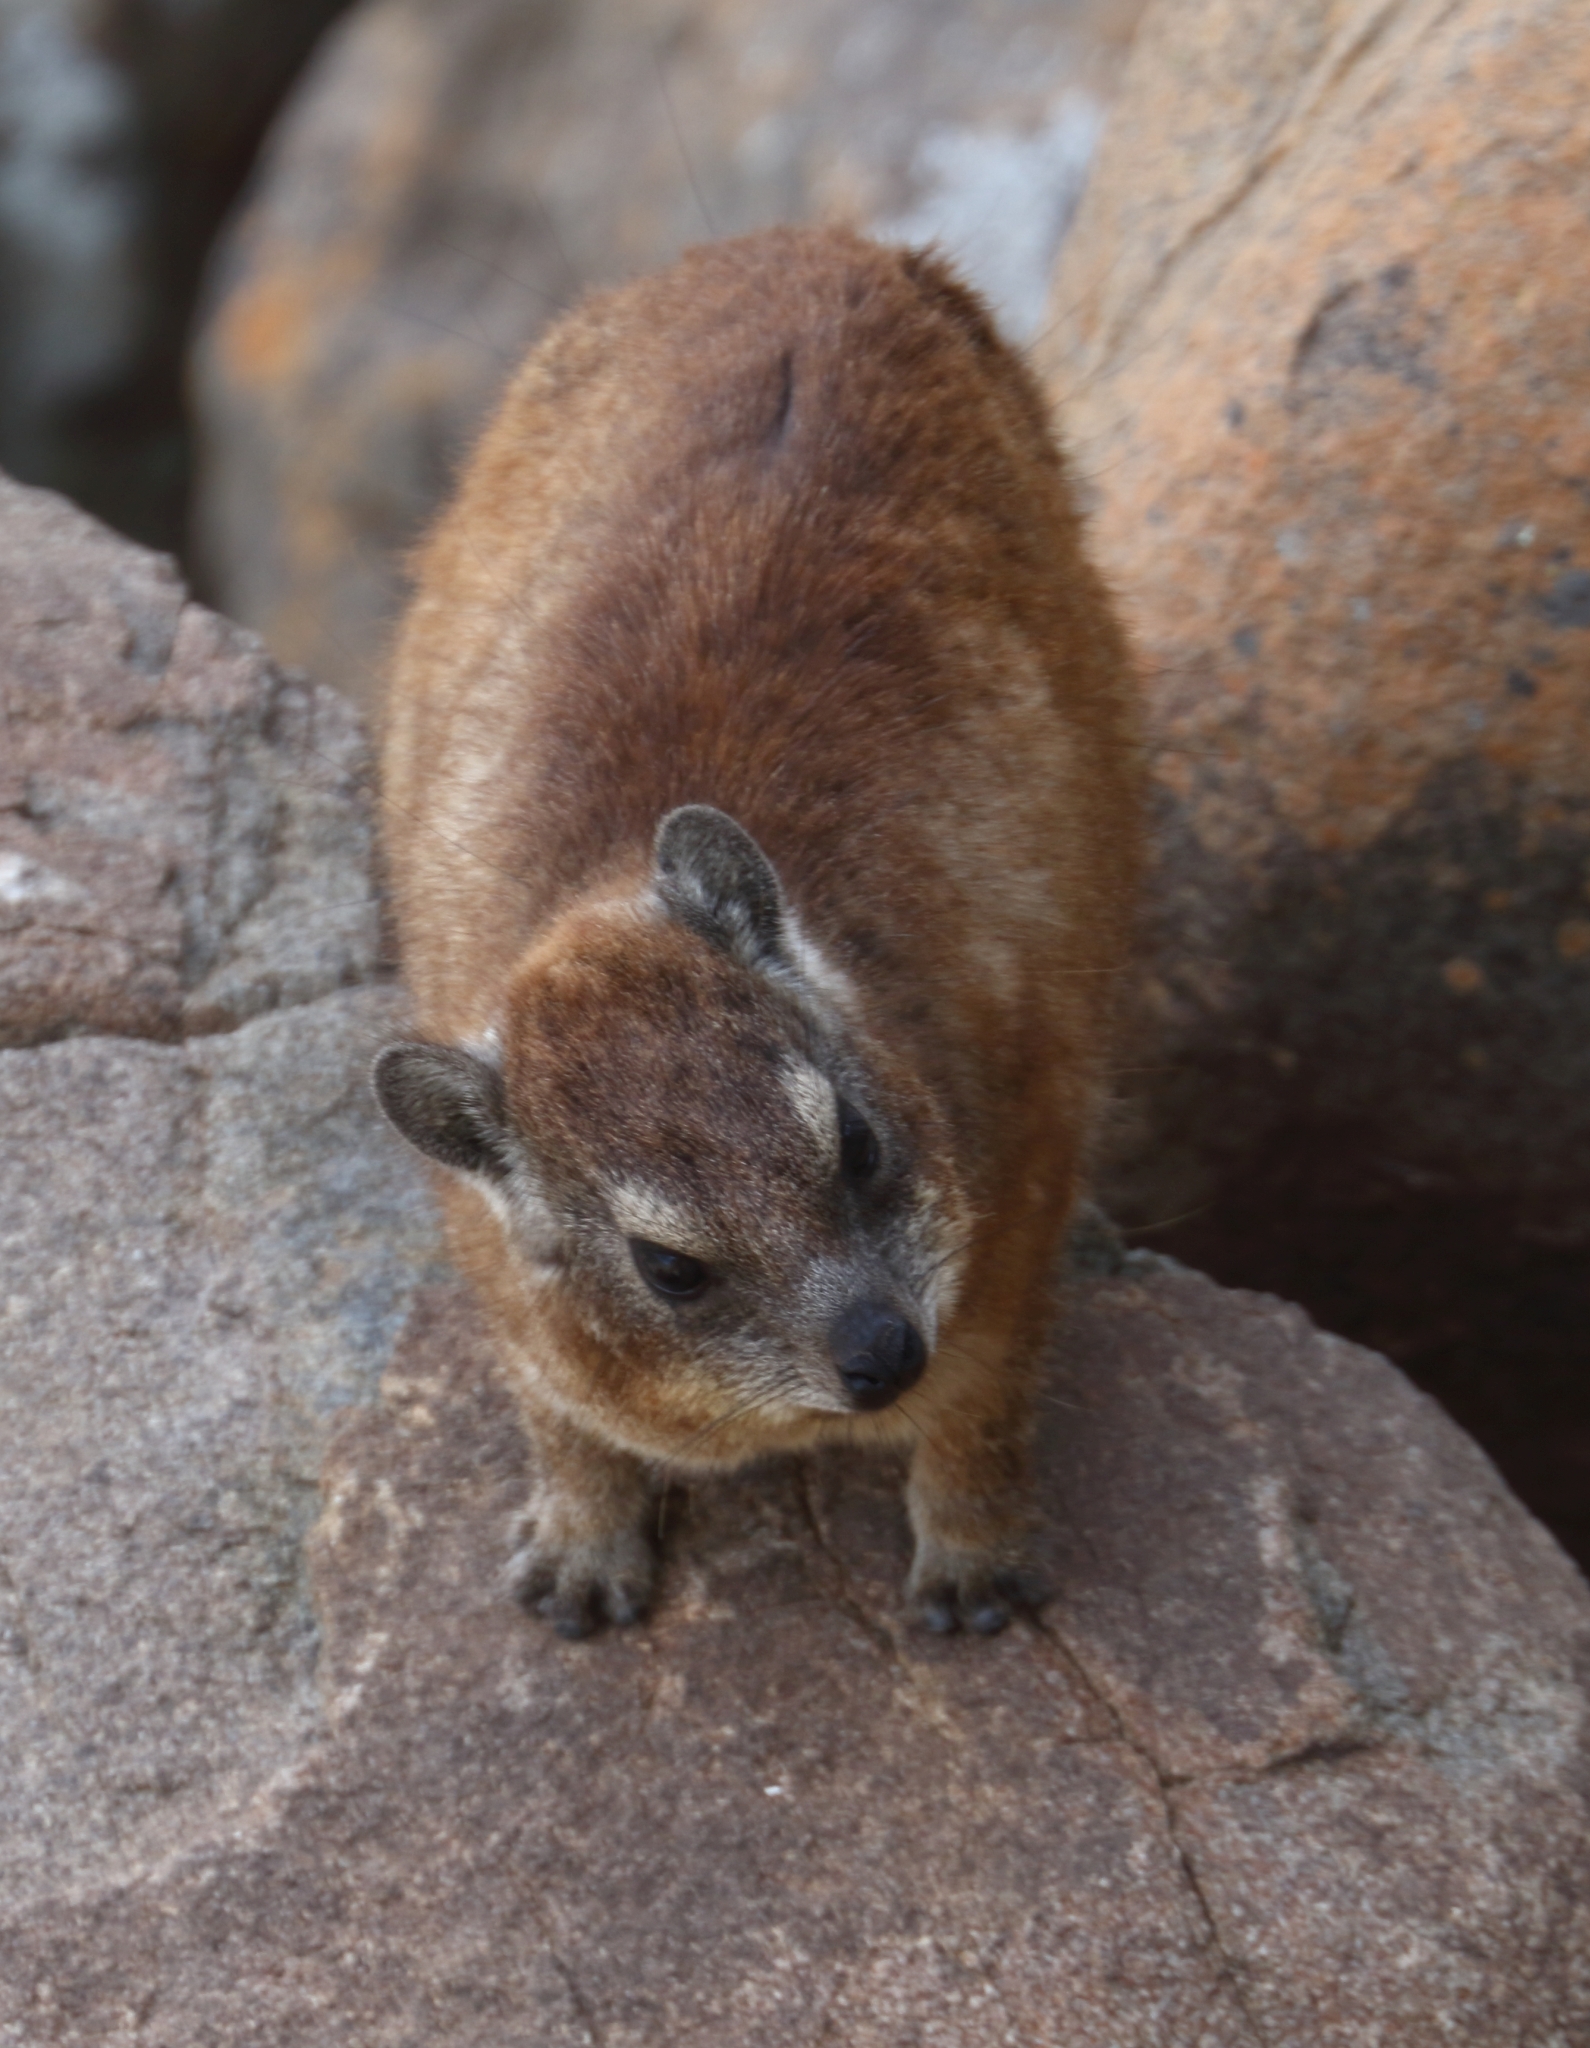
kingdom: Animalia
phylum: Chordata
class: Mammalia
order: Hyracoidea
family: Procaviidae
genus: Procavia
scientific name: Procavia capensis
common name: Rock hyrax
